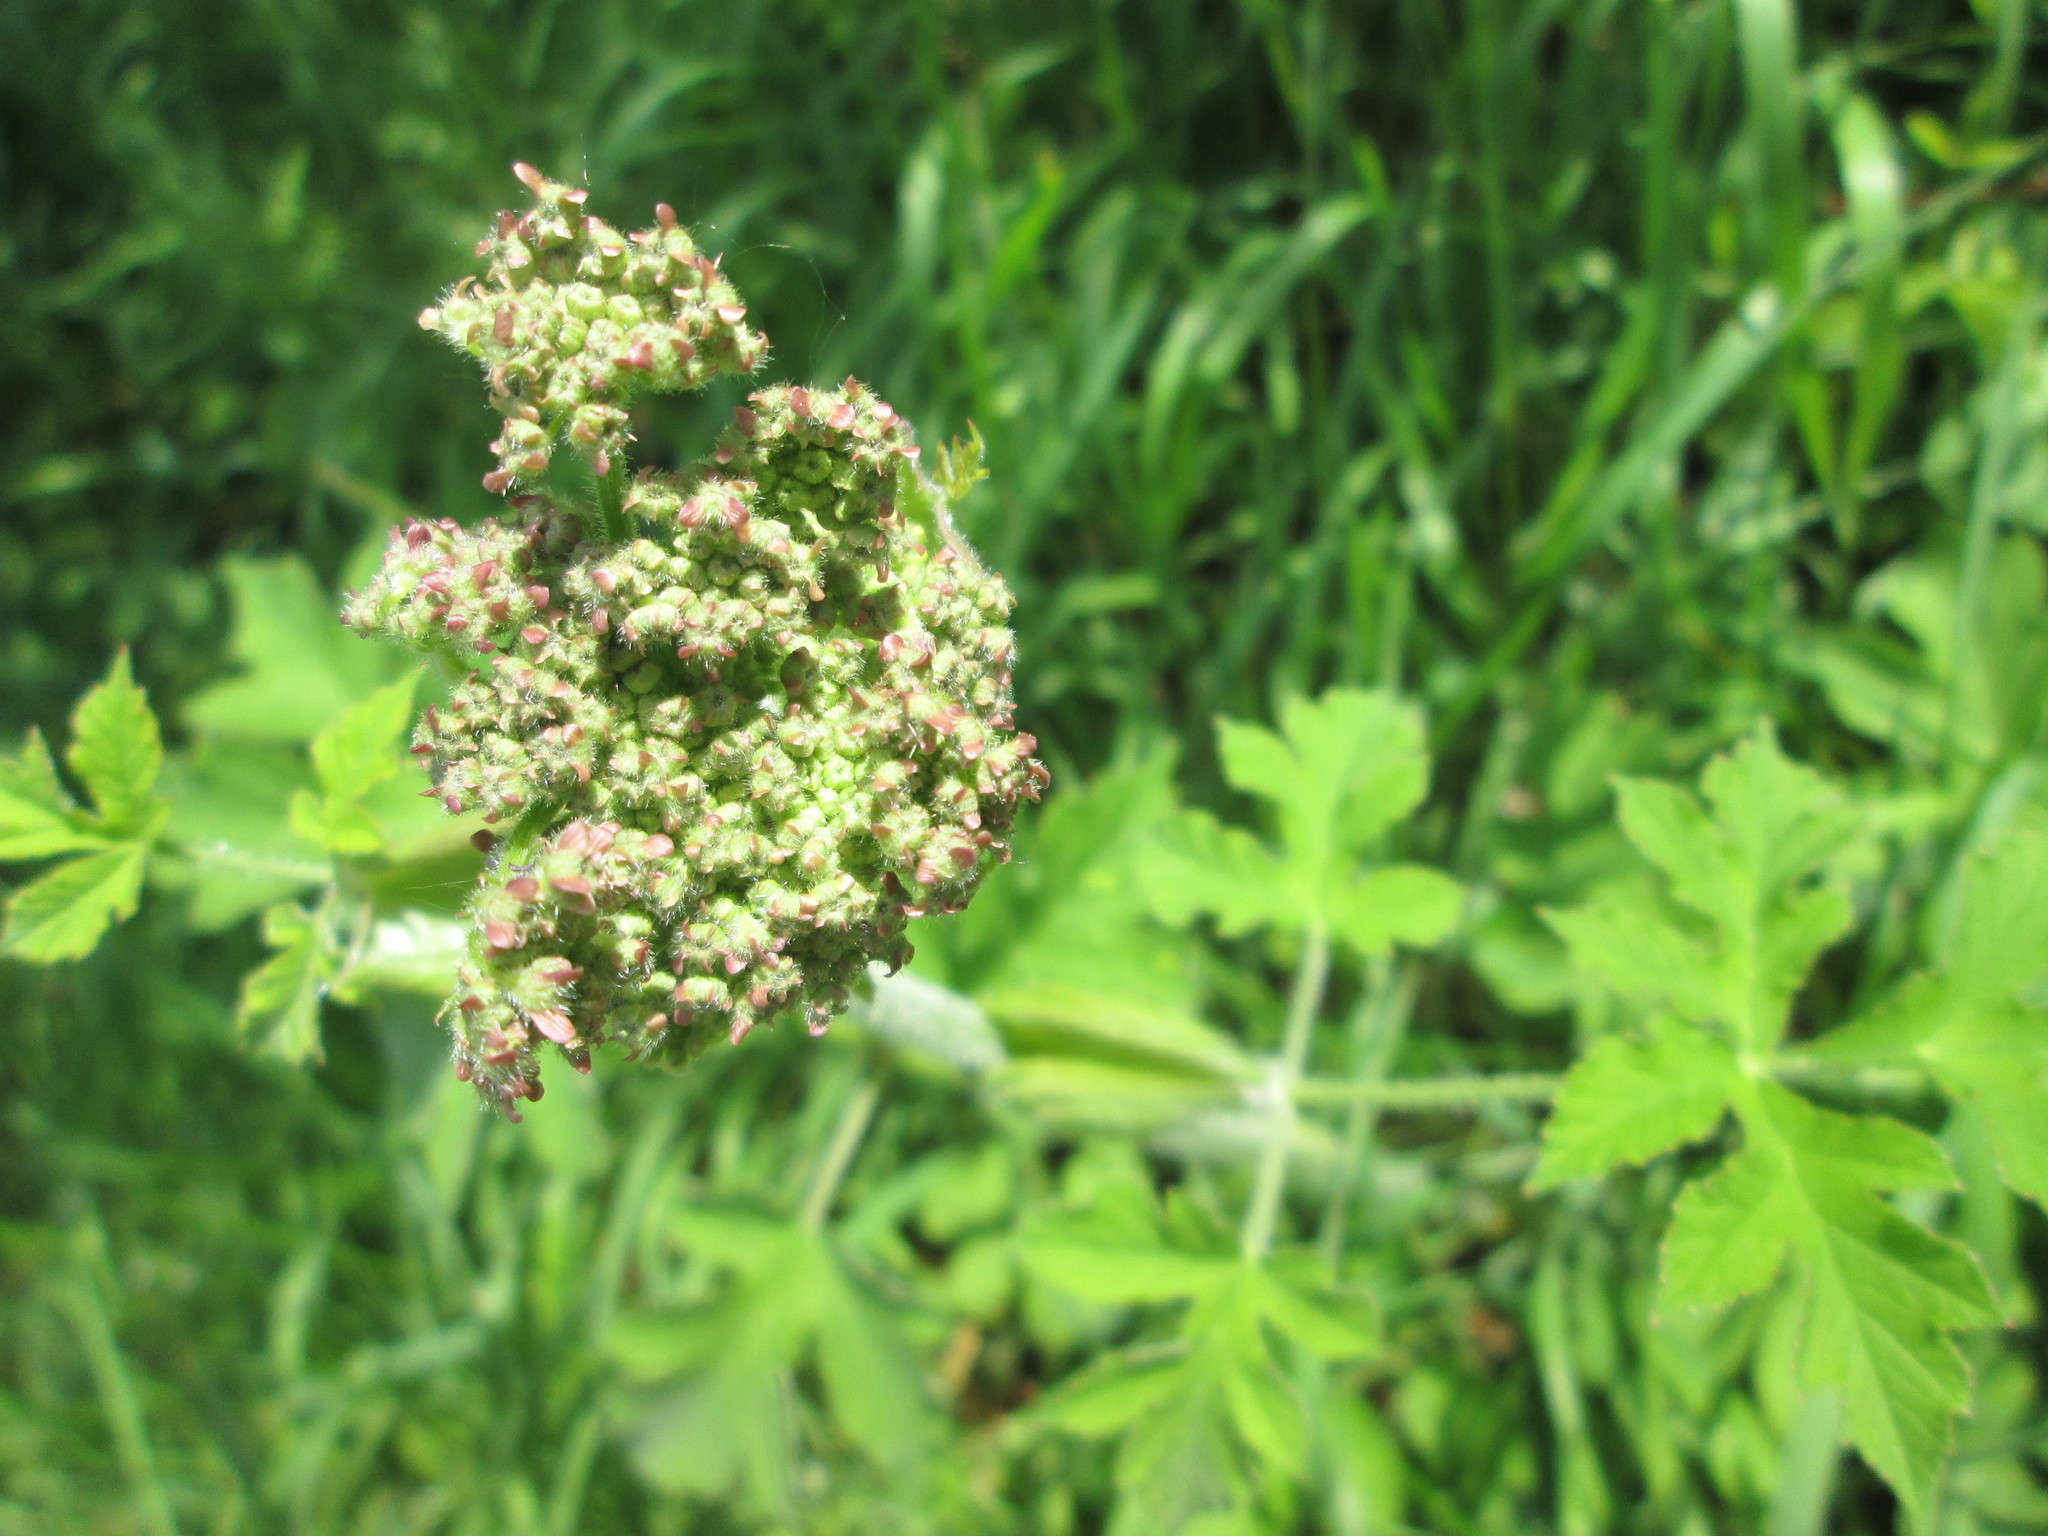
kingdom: Plantae
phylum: Tracheophyta
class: Magnoliopsida
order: Apiales
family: Apiaceae
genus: Heracleum
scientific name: Heracleum sphondylium
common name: Hogweed
